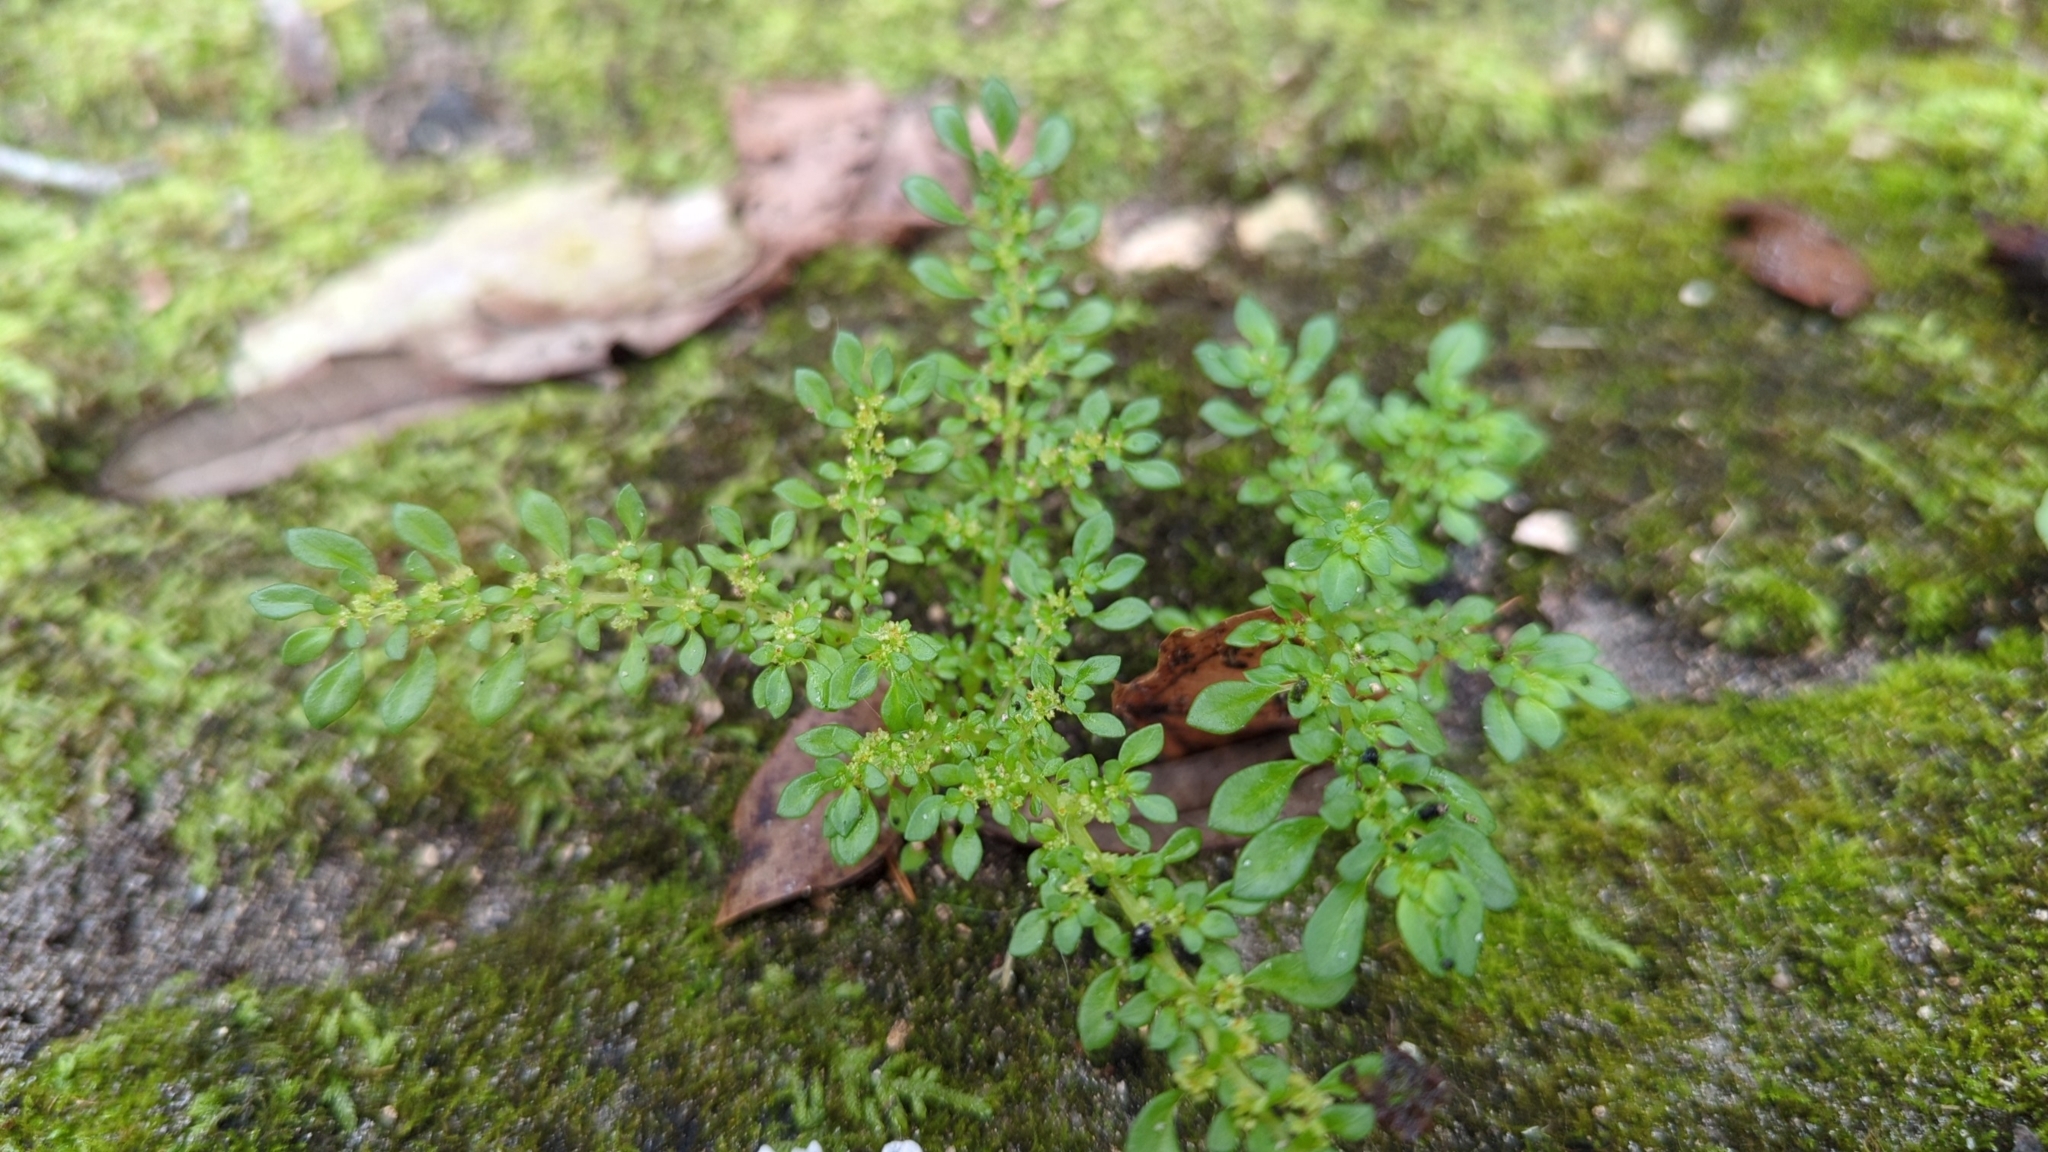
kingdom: Plantae
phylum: Tracheophyta
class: Magnoliopsida
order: Rosales
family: Urticaceae
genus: Pilea
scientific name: Pilea microphylla
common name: Artillery-plant
